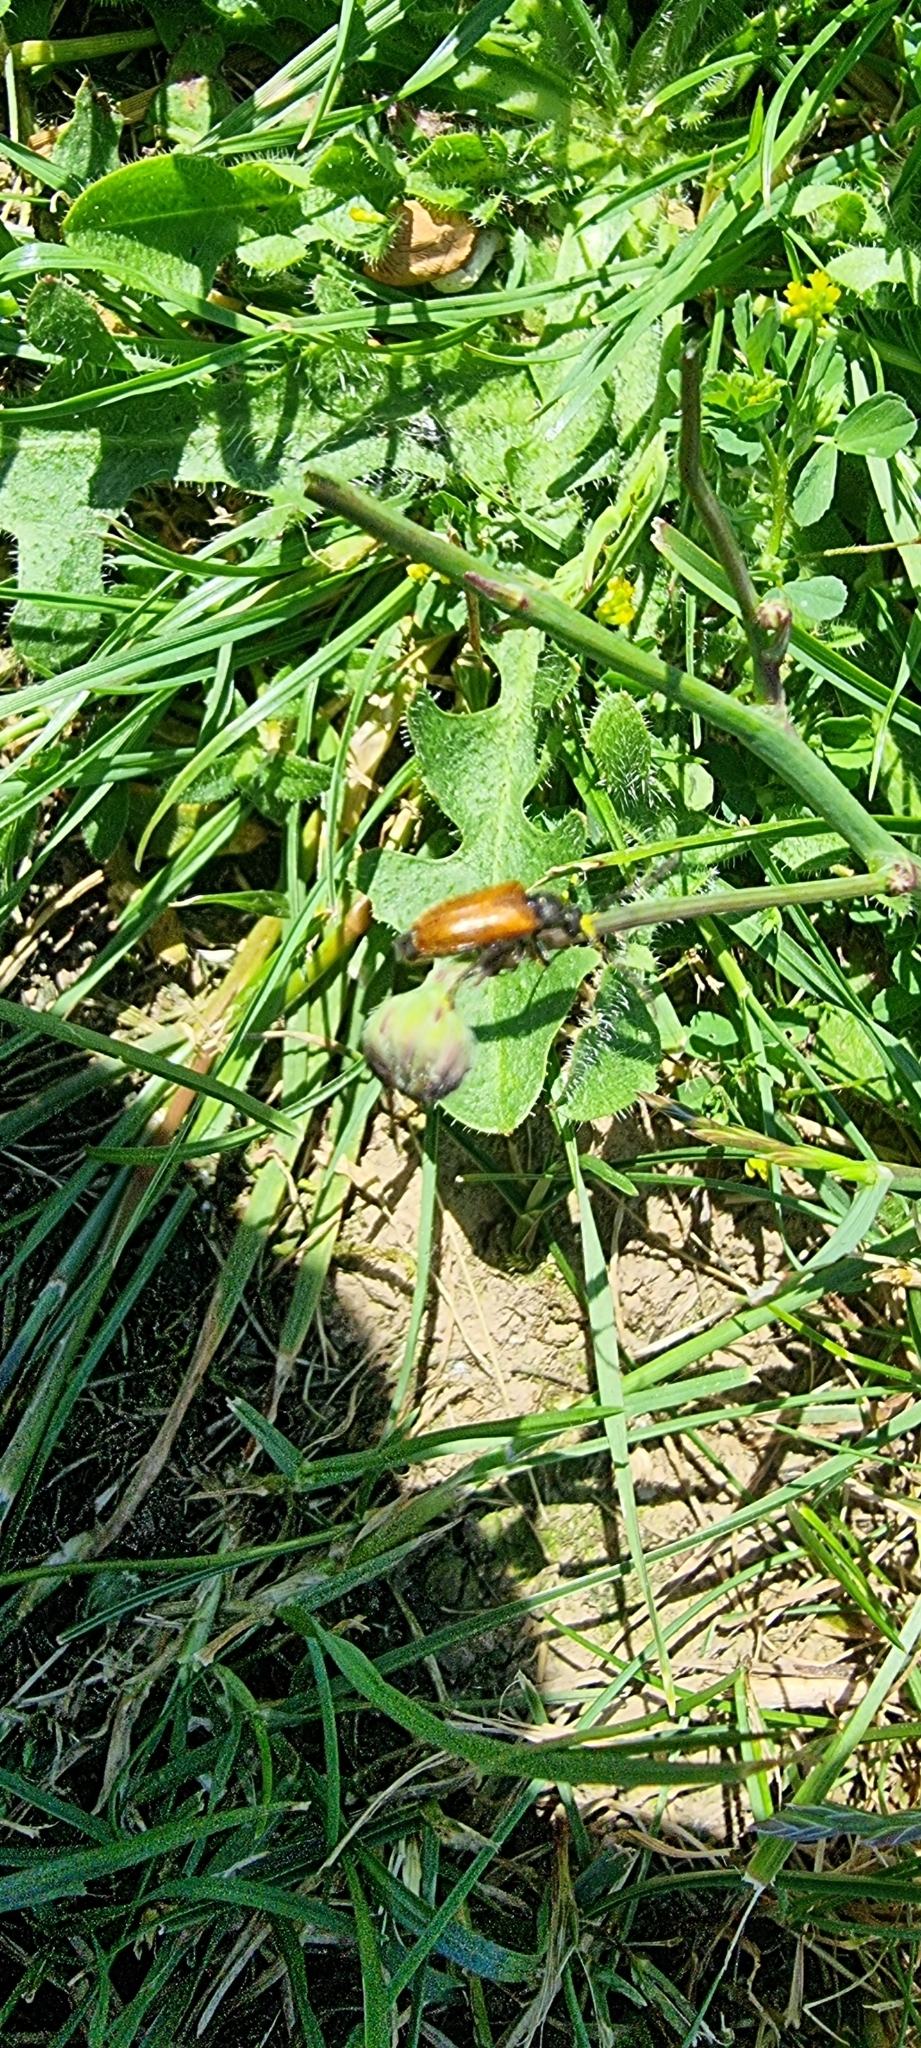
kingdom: Animalia
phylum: Arthropoda
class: Insecta
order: Coleoptera
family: Cerambycidae
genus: Pseudovadonia
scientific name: Pseudovadonia livida
